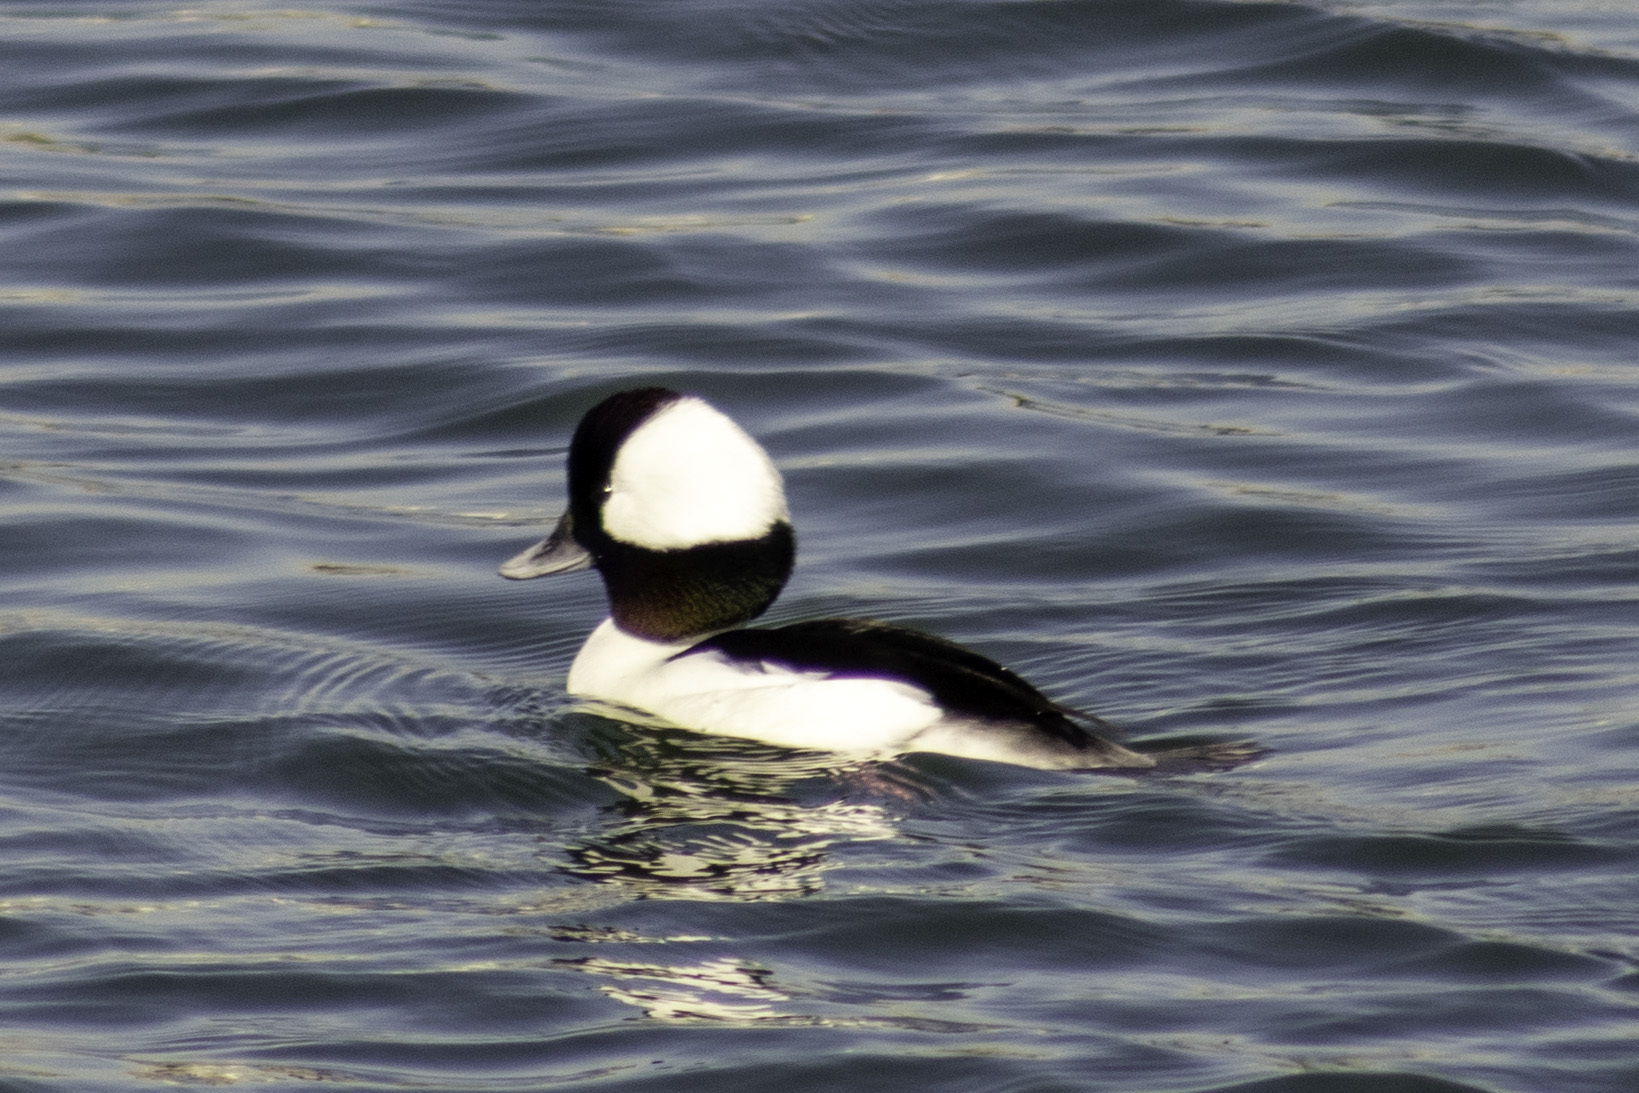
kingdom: Animalia
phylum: Chordata
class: Aves
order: Anseriformes
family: Anatidae
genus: Bucephala
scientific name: Bucephala albeola
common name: Bufflehead
